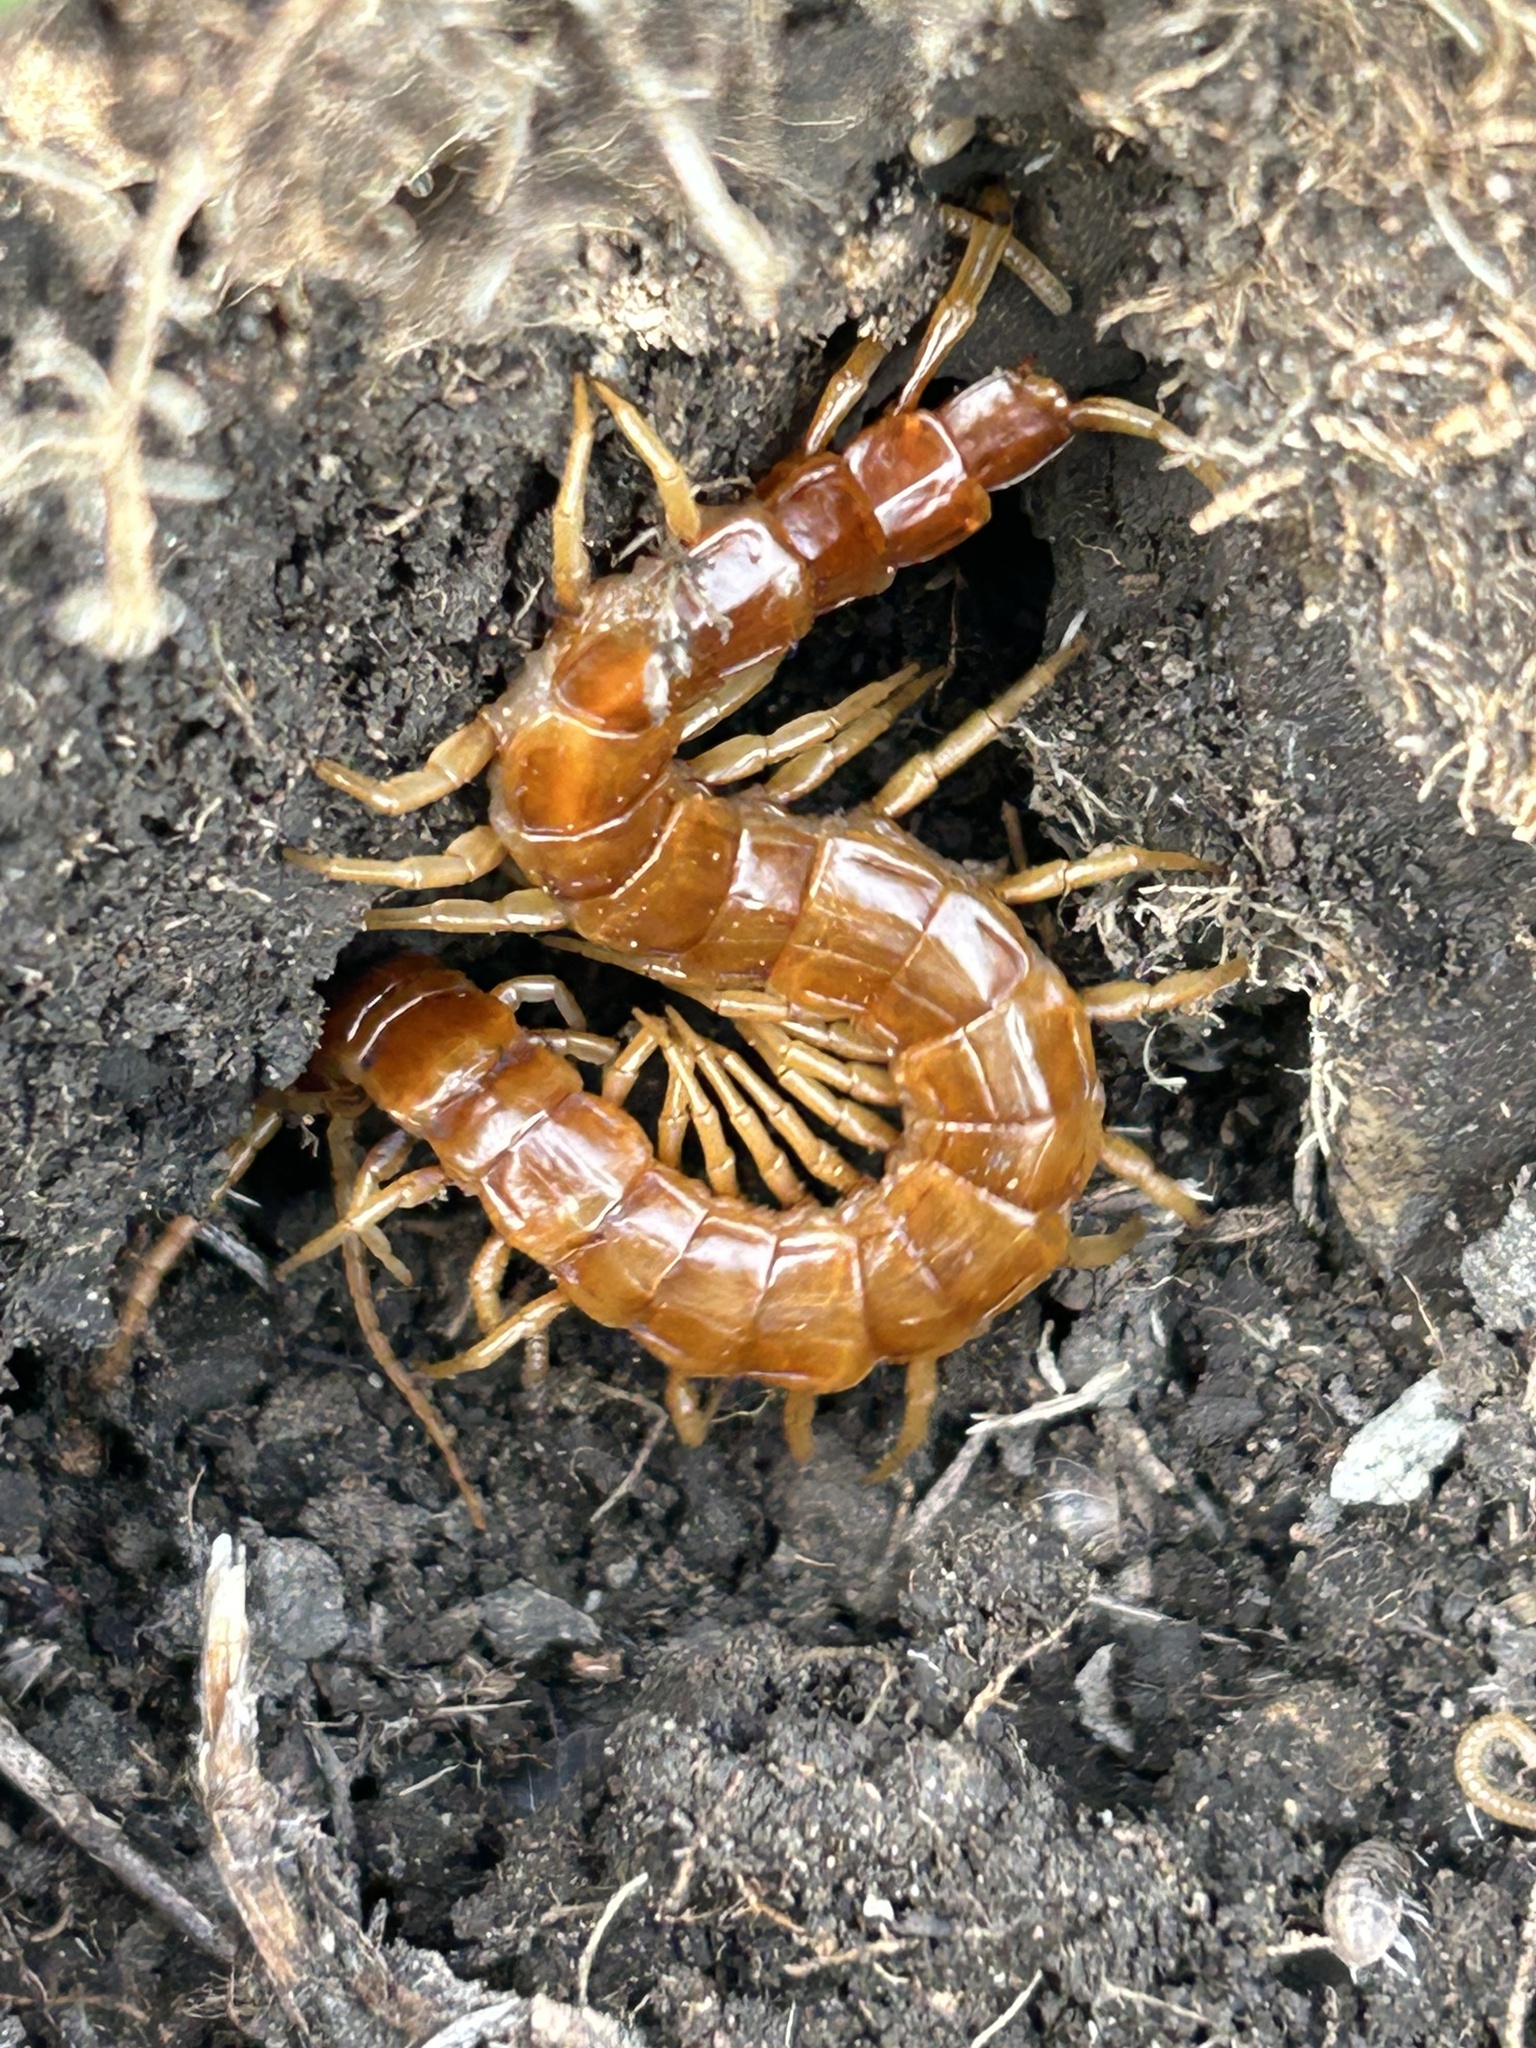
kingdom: Animalia
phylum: Arthropoda
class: Chilopoda
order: Scolopendromorpha
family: Scolopocryptopidae
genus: Scolopocryptops
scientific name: Scolopocryptops gracilis
